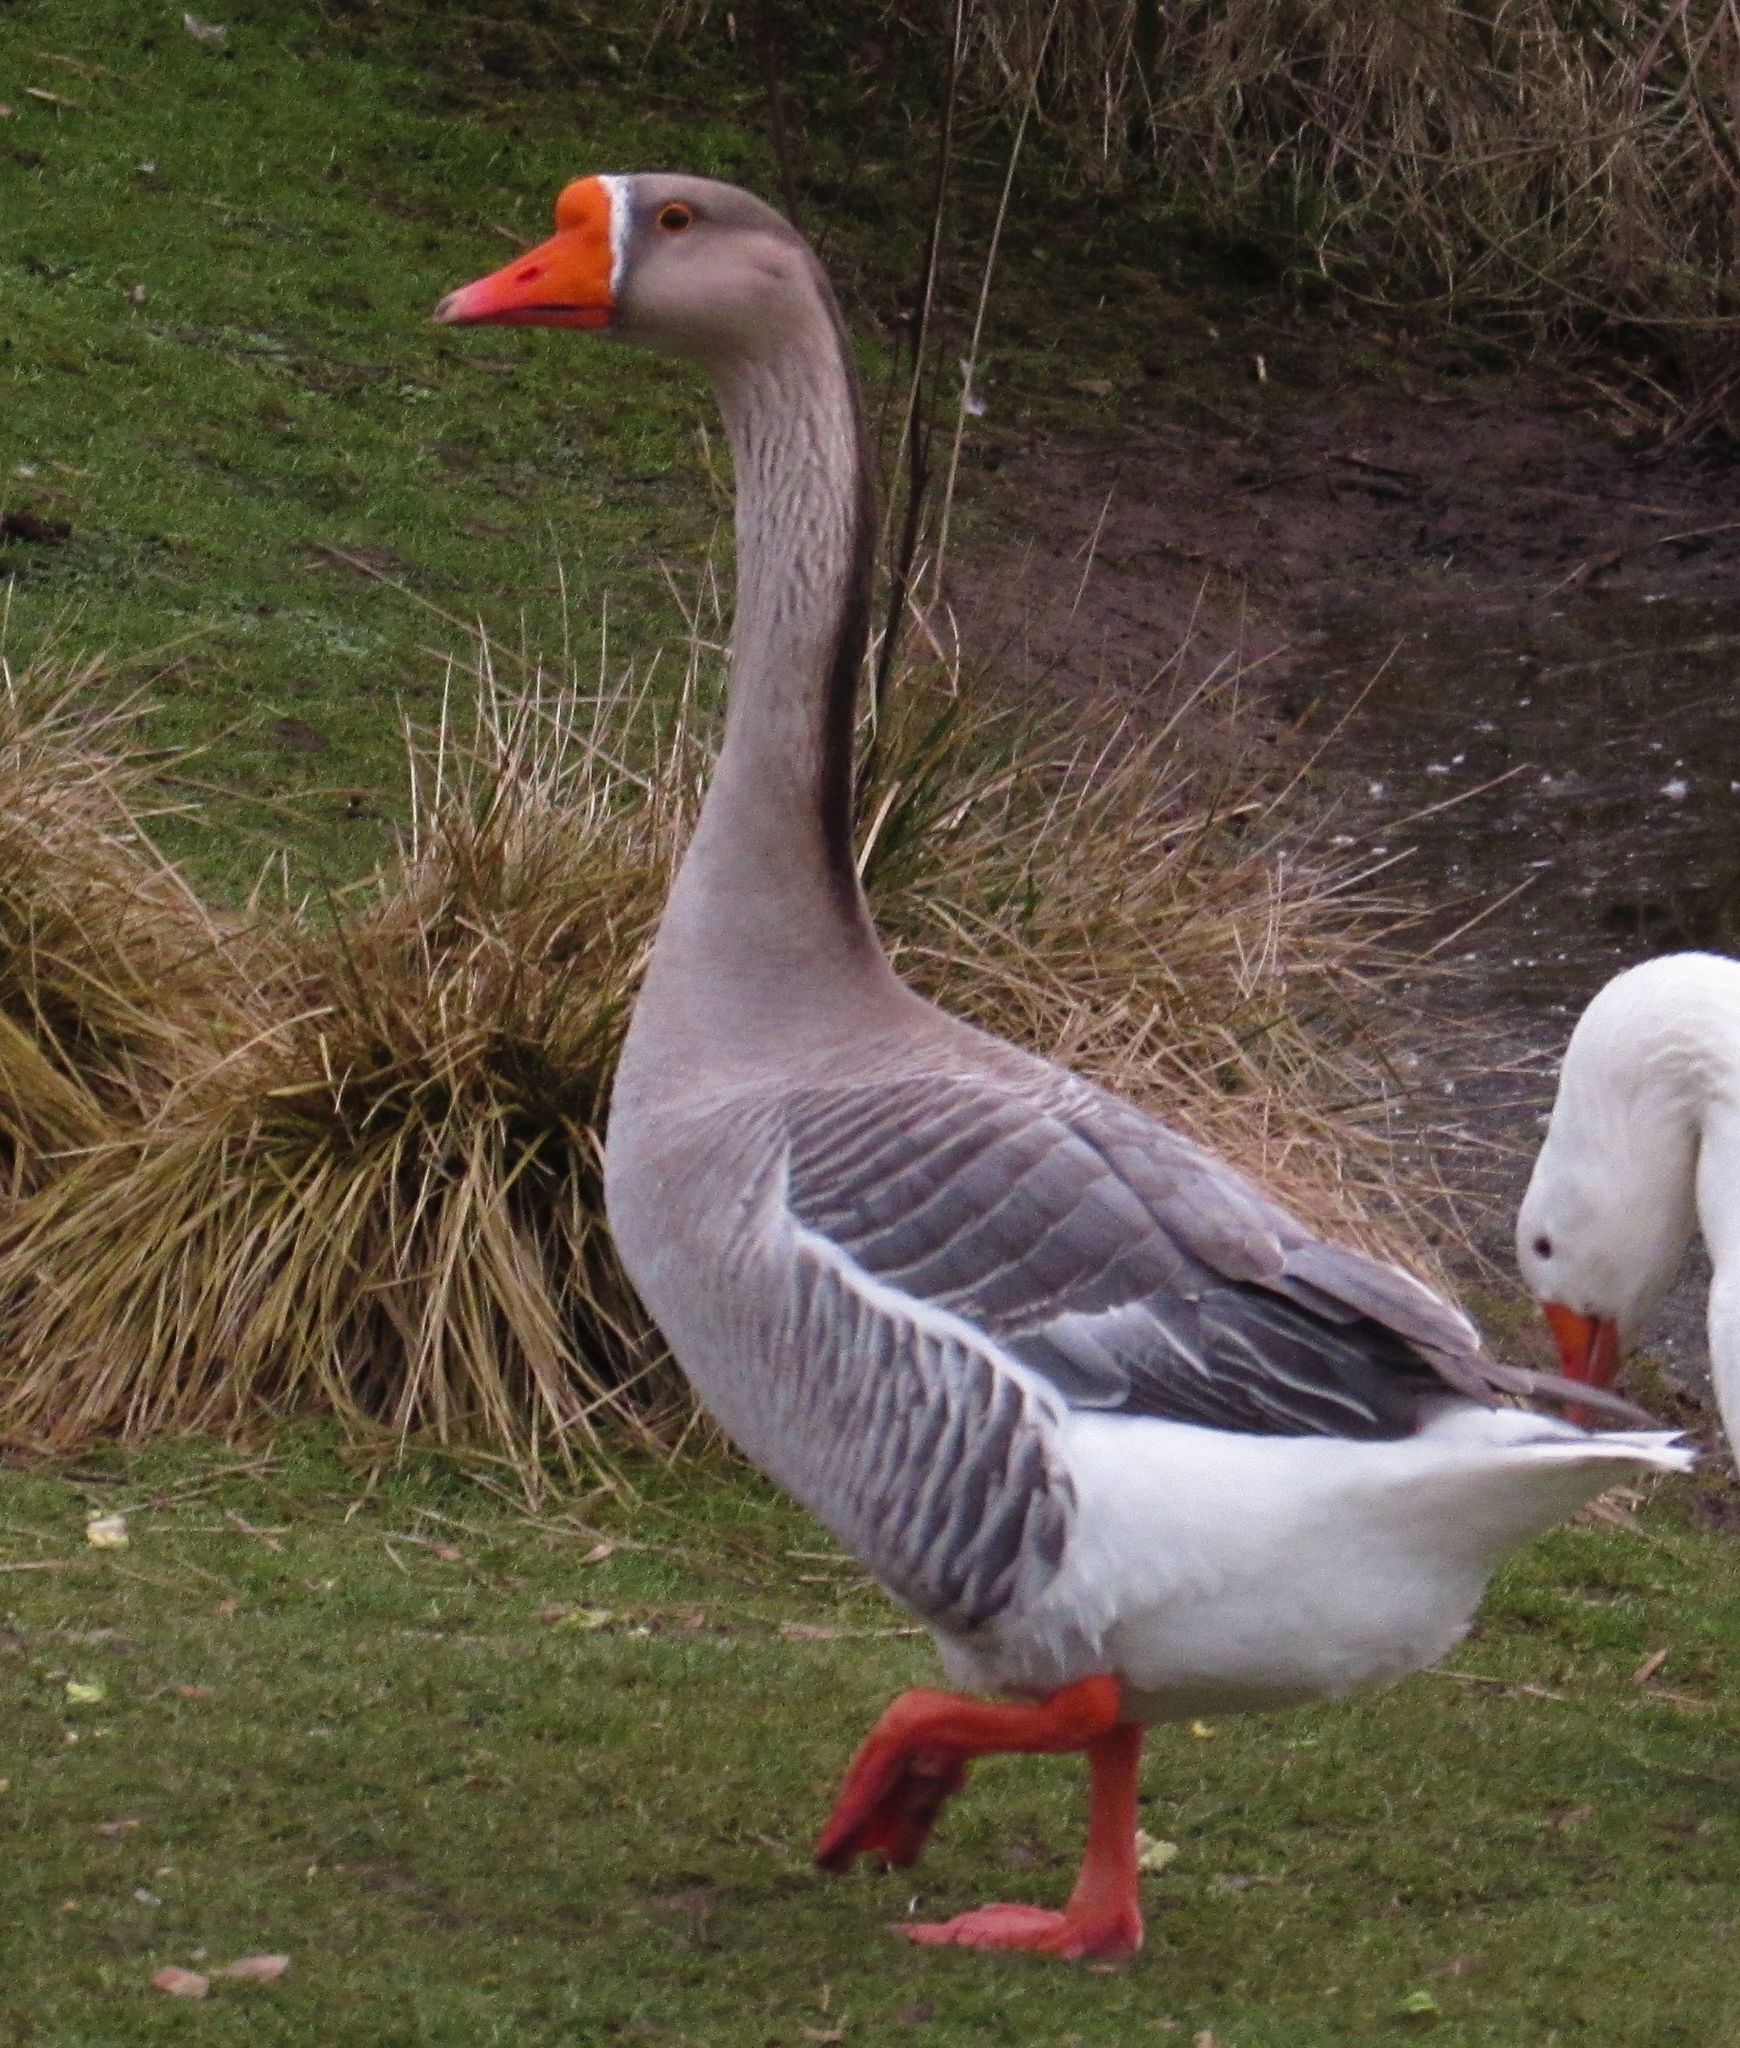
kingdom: Animalia
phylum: Chordata
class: Aves
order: Anseriformes
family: Anatidae
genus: Anser
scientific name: Anser
